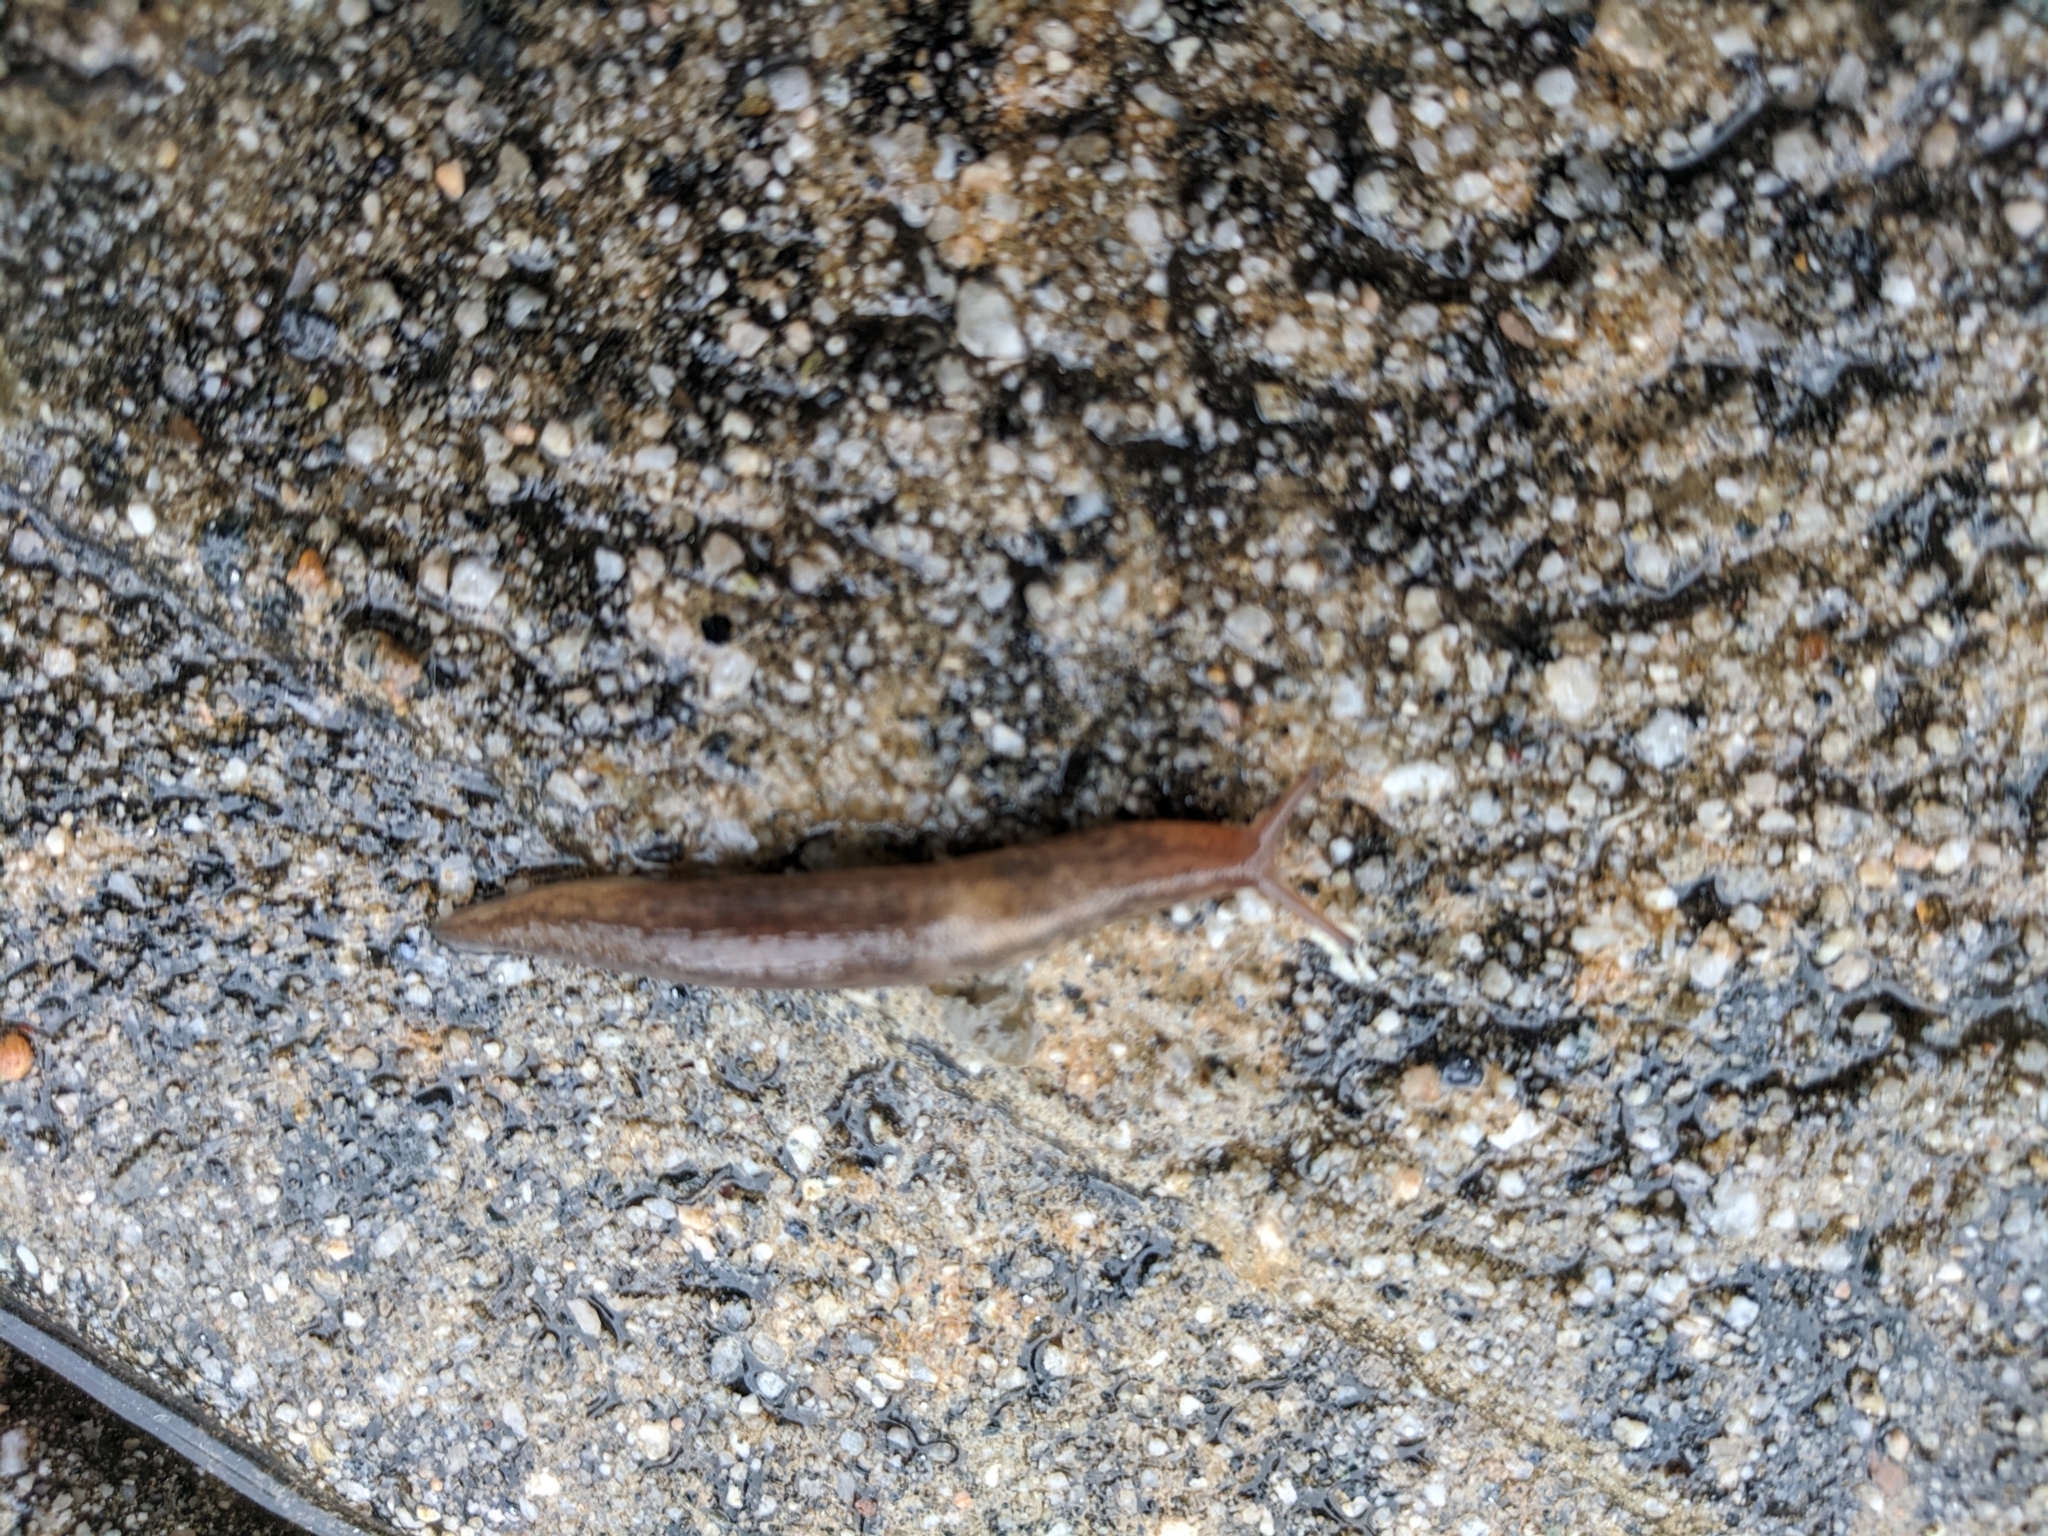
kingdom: Animalia
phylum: Mollusca
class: Gastropoda
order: Stylommatophora
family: Limacidae
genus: Ambigolimax
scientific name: Ambigolimax
